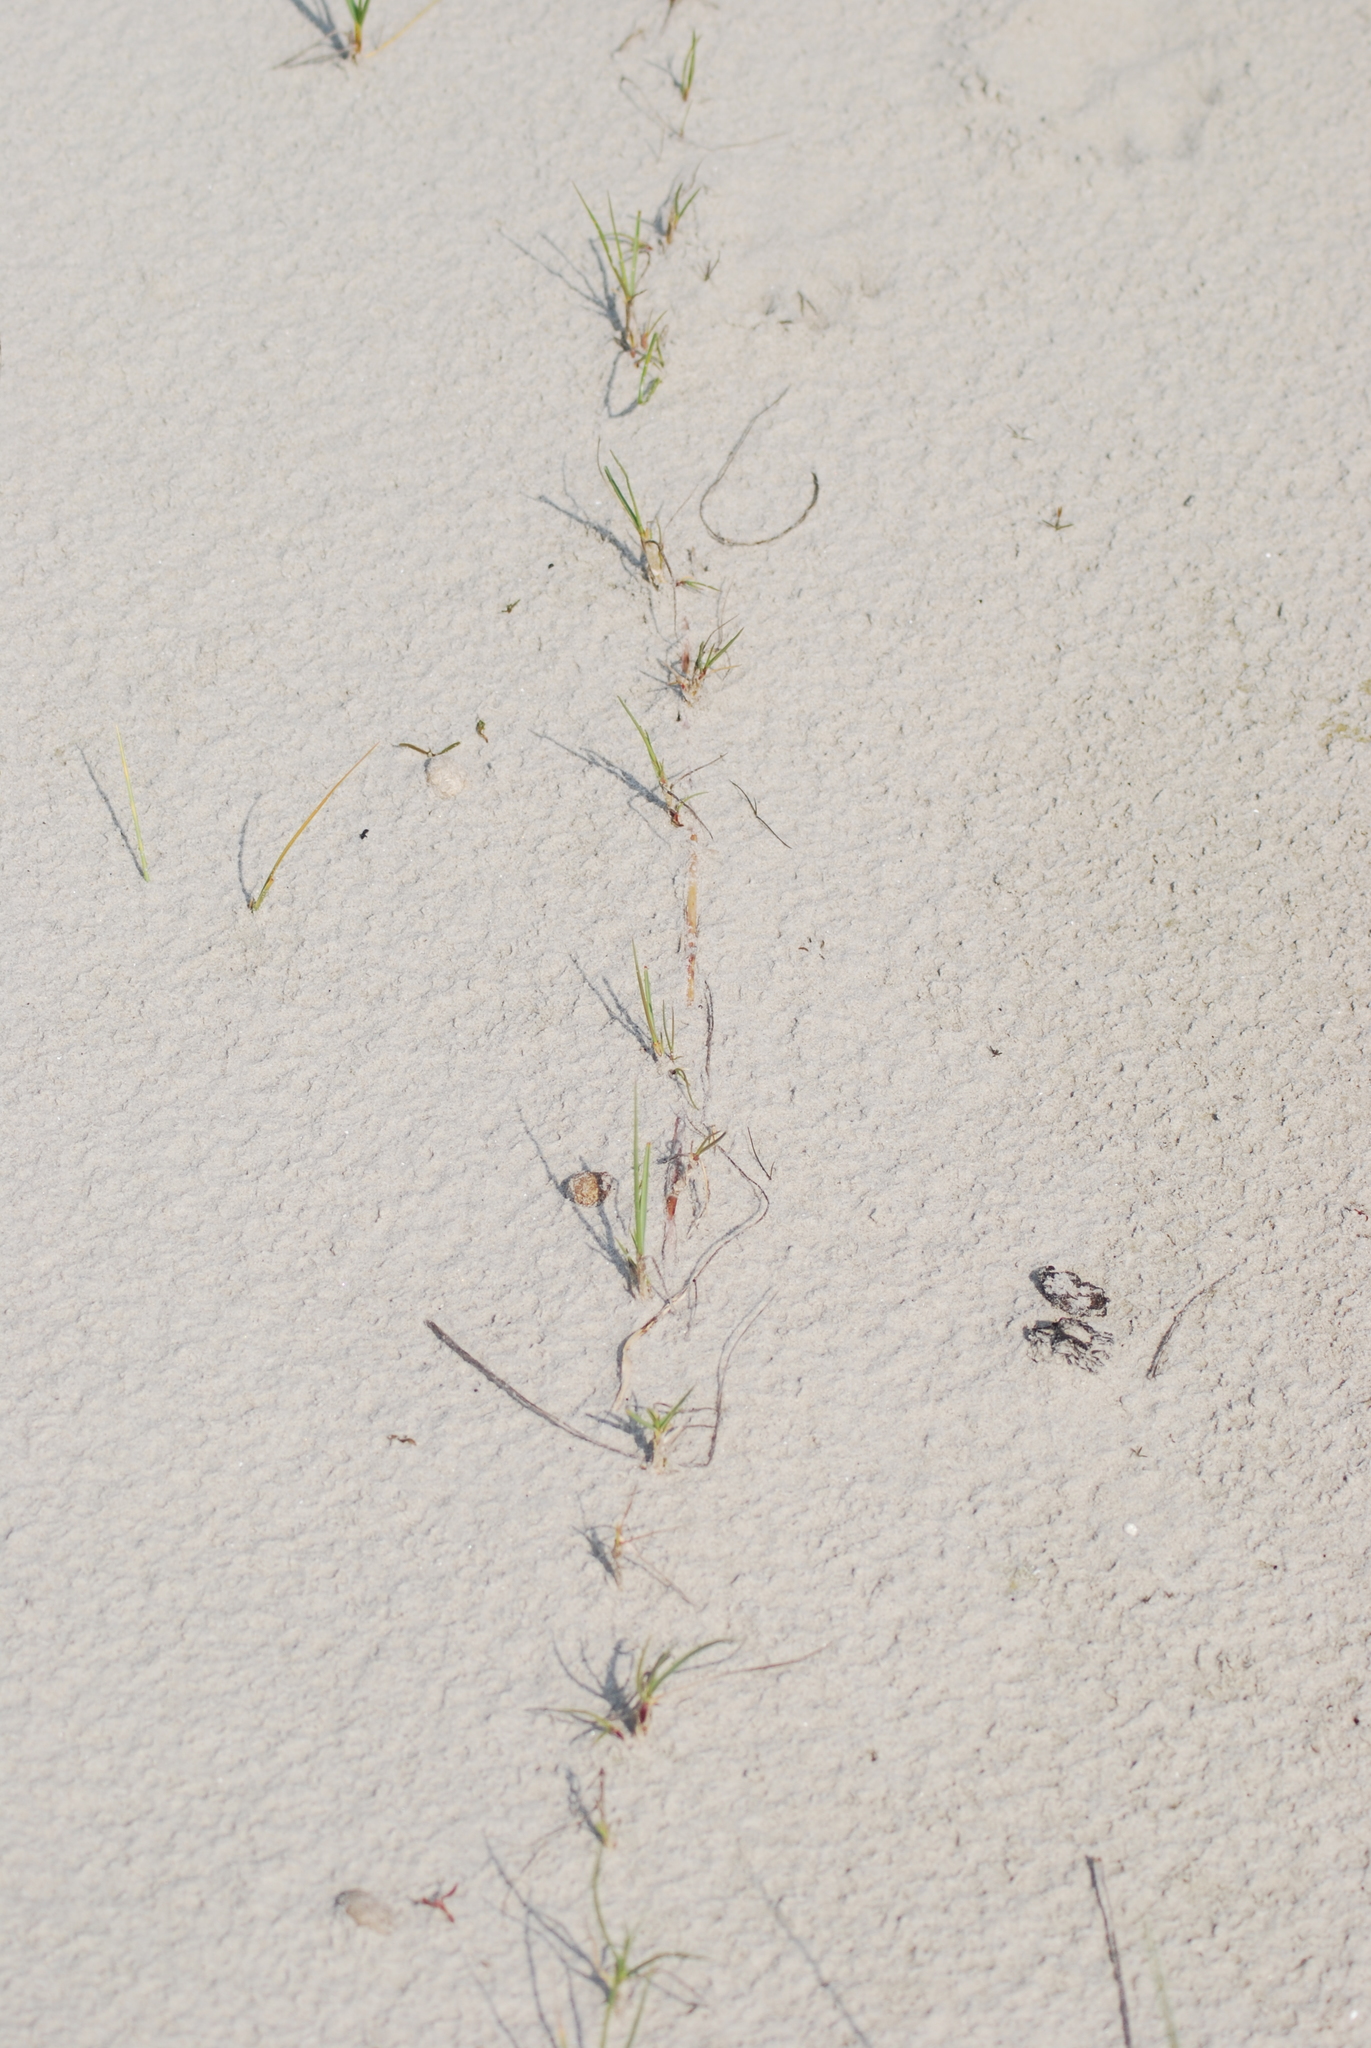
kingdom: Plantae
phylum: Tracheophyta
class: Liliopsida
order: Poales
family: Cyperaceae
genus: Carex
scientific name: Carex arenaria
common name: Sand sedge
